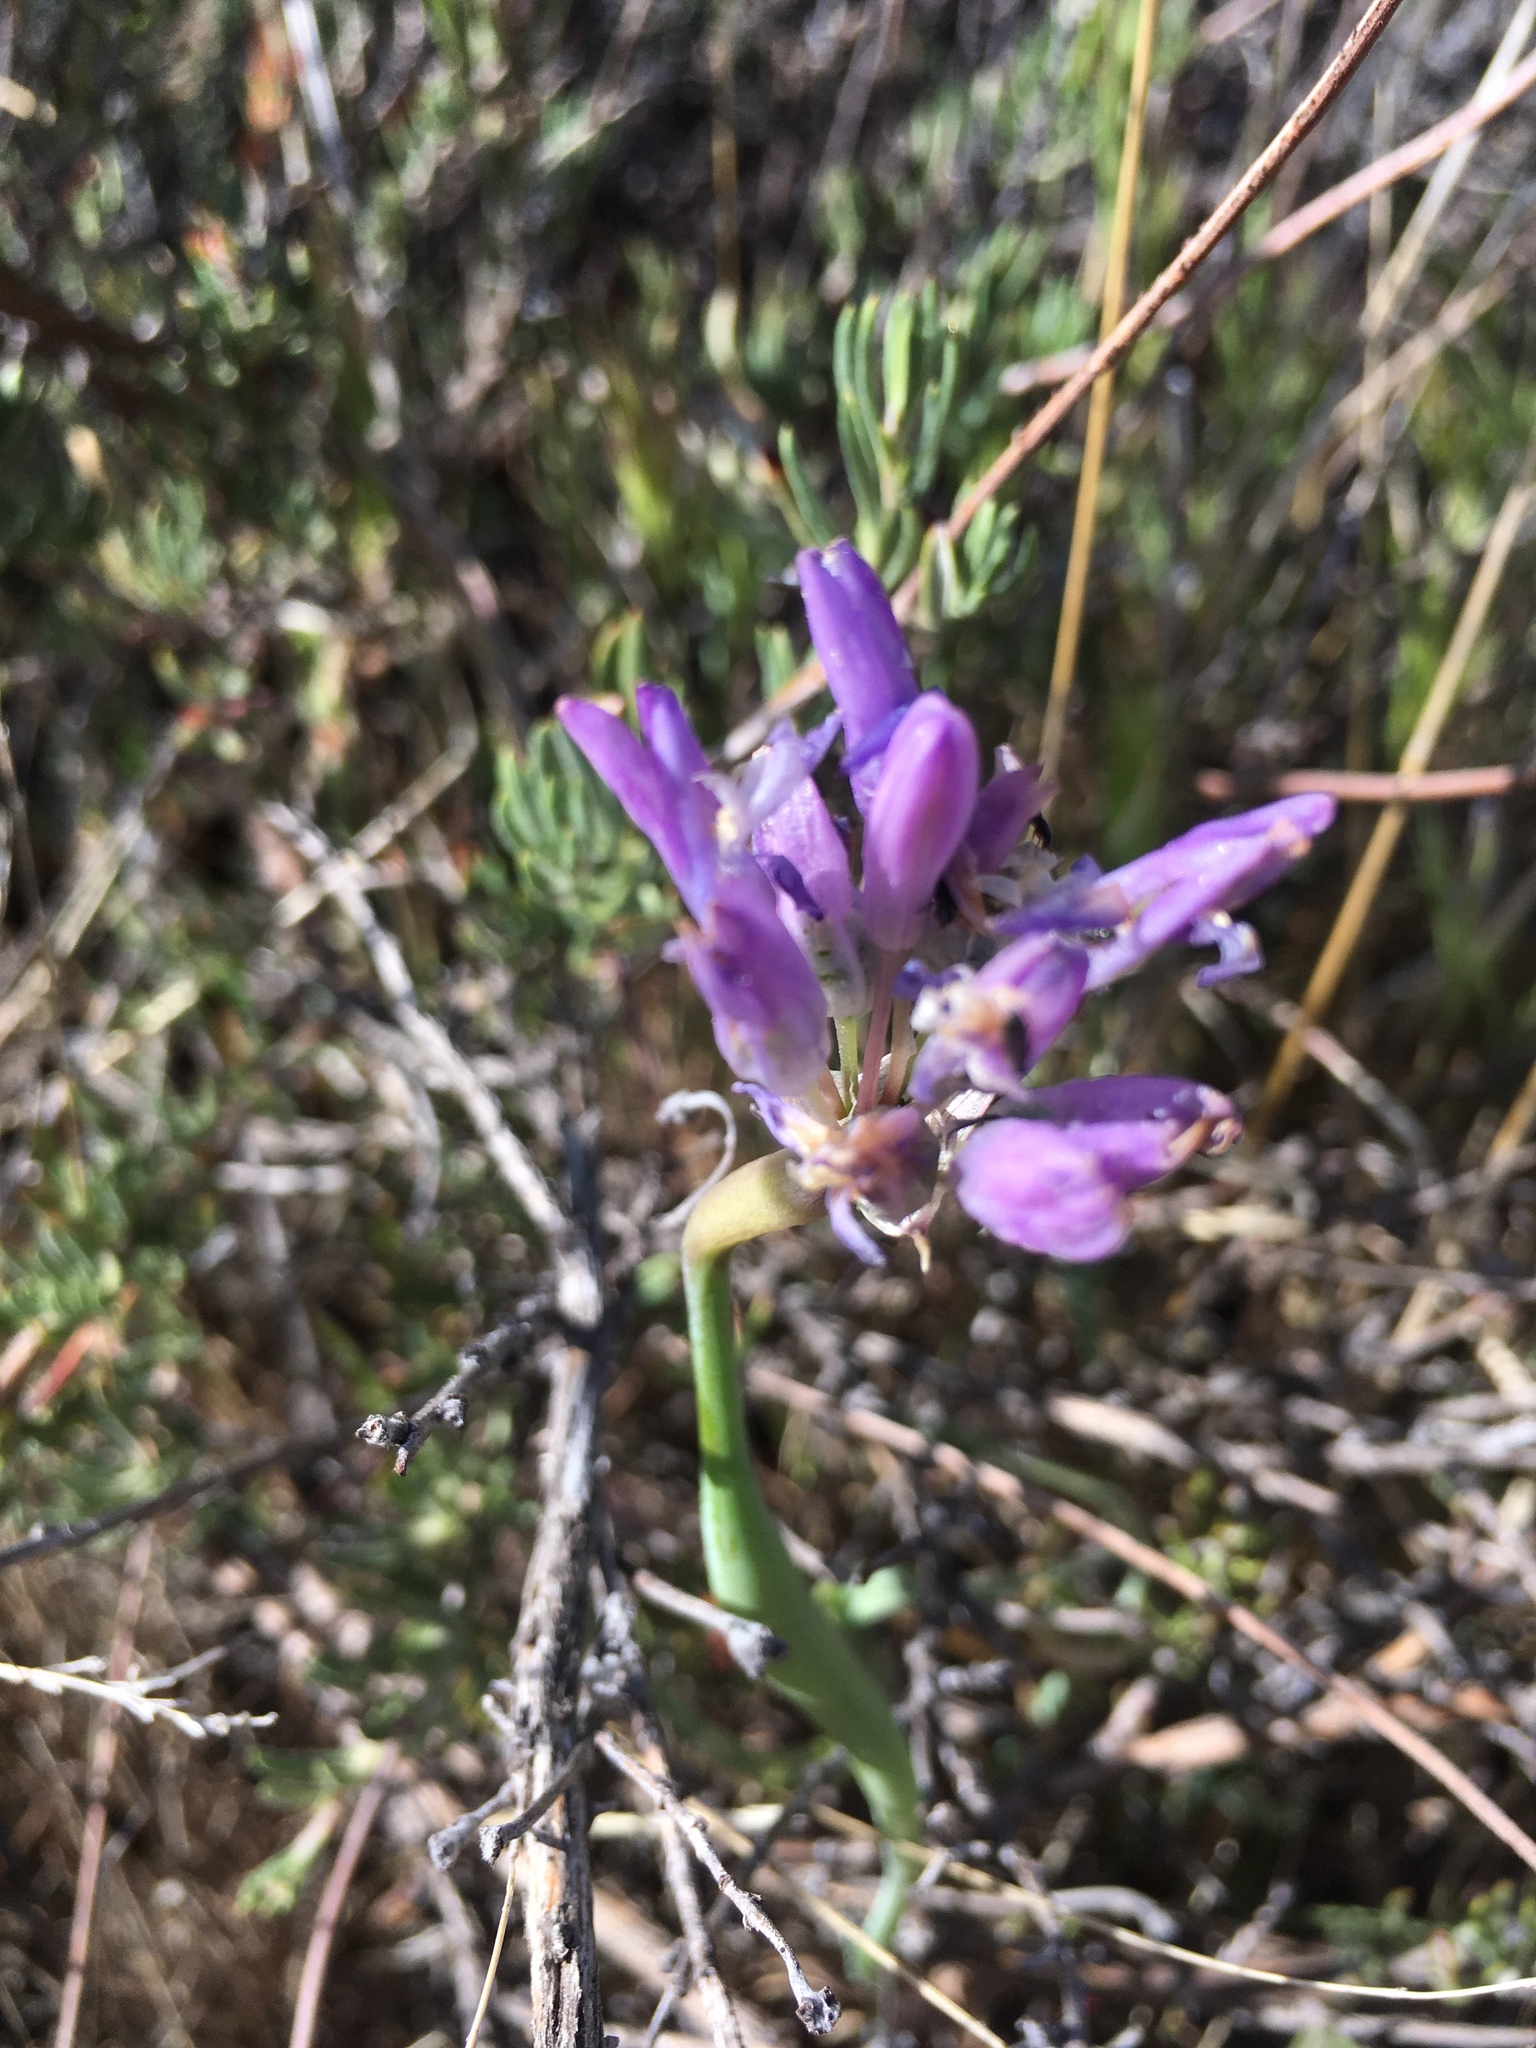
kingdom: Plantae
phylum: Tracheophyta
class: Liliopsida
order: Asparagales
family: Asparagaceae
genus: Dipterostemon
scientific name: Dipterostemon capitatus
